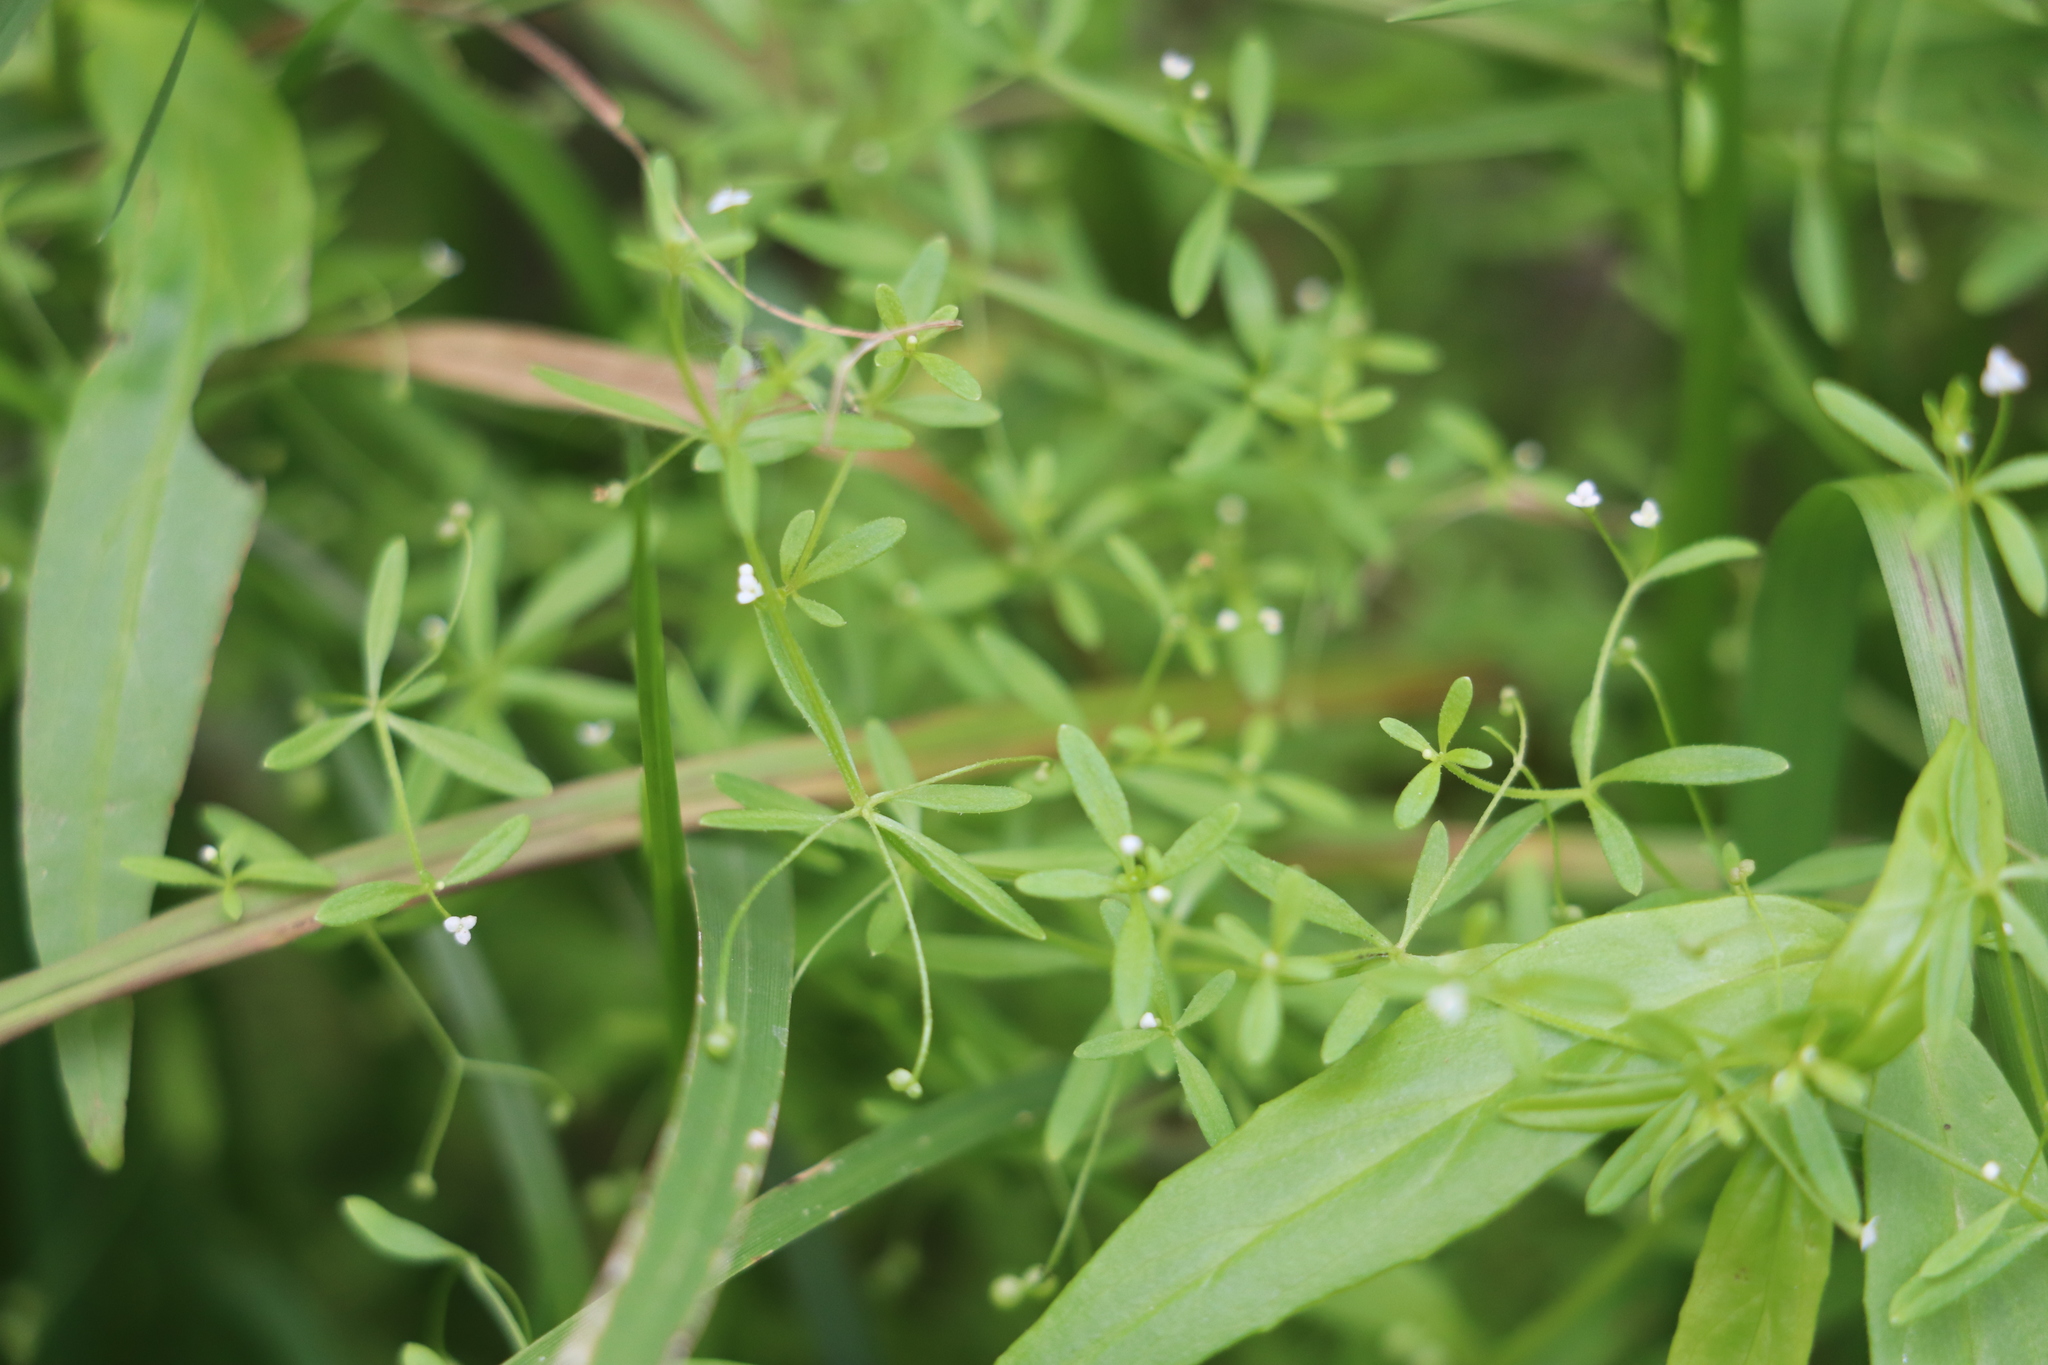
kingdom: Plantae
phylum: Tracheophyta
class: Magnoliopsida
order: Gentianales
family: Rubiaceae
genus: Galium
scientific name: Galium trifidum
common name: Small bedstraw
